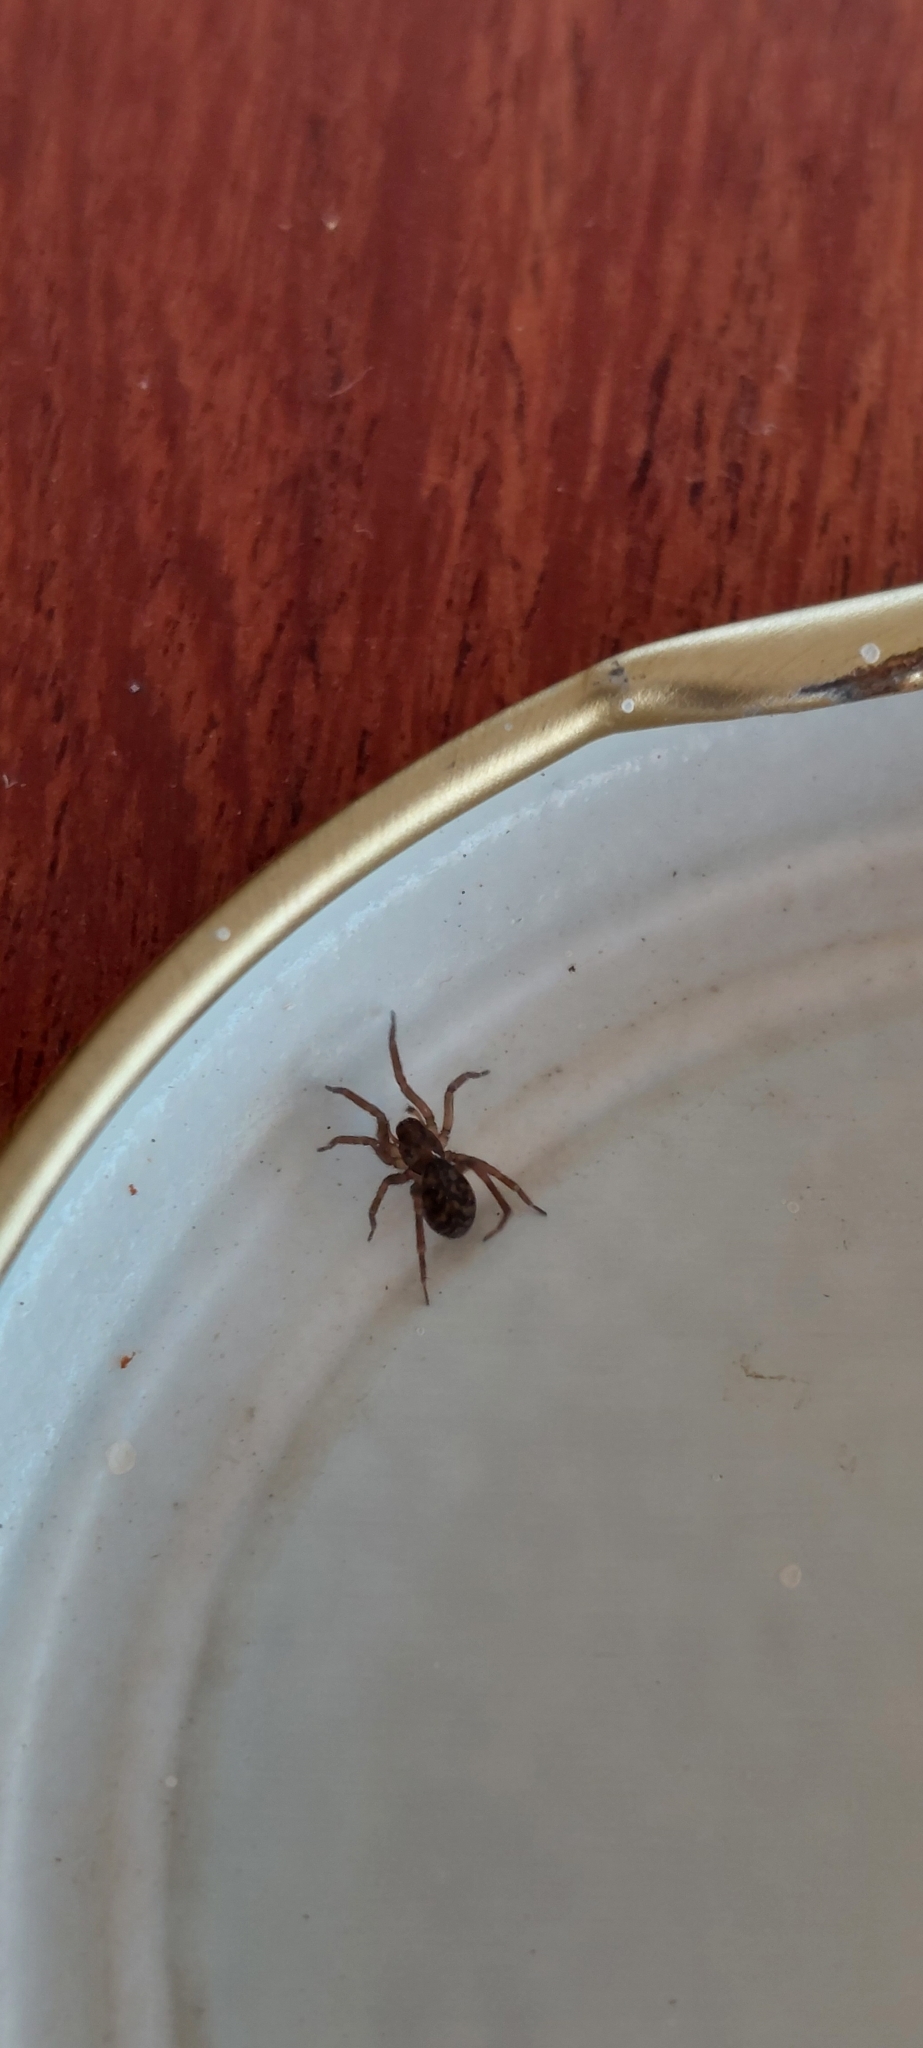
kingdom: Animalia
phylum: Arthropoda
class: Arachnida
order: Araneae
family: Amaurobiidae
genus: Anisacate
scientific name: Anisacate fragile
